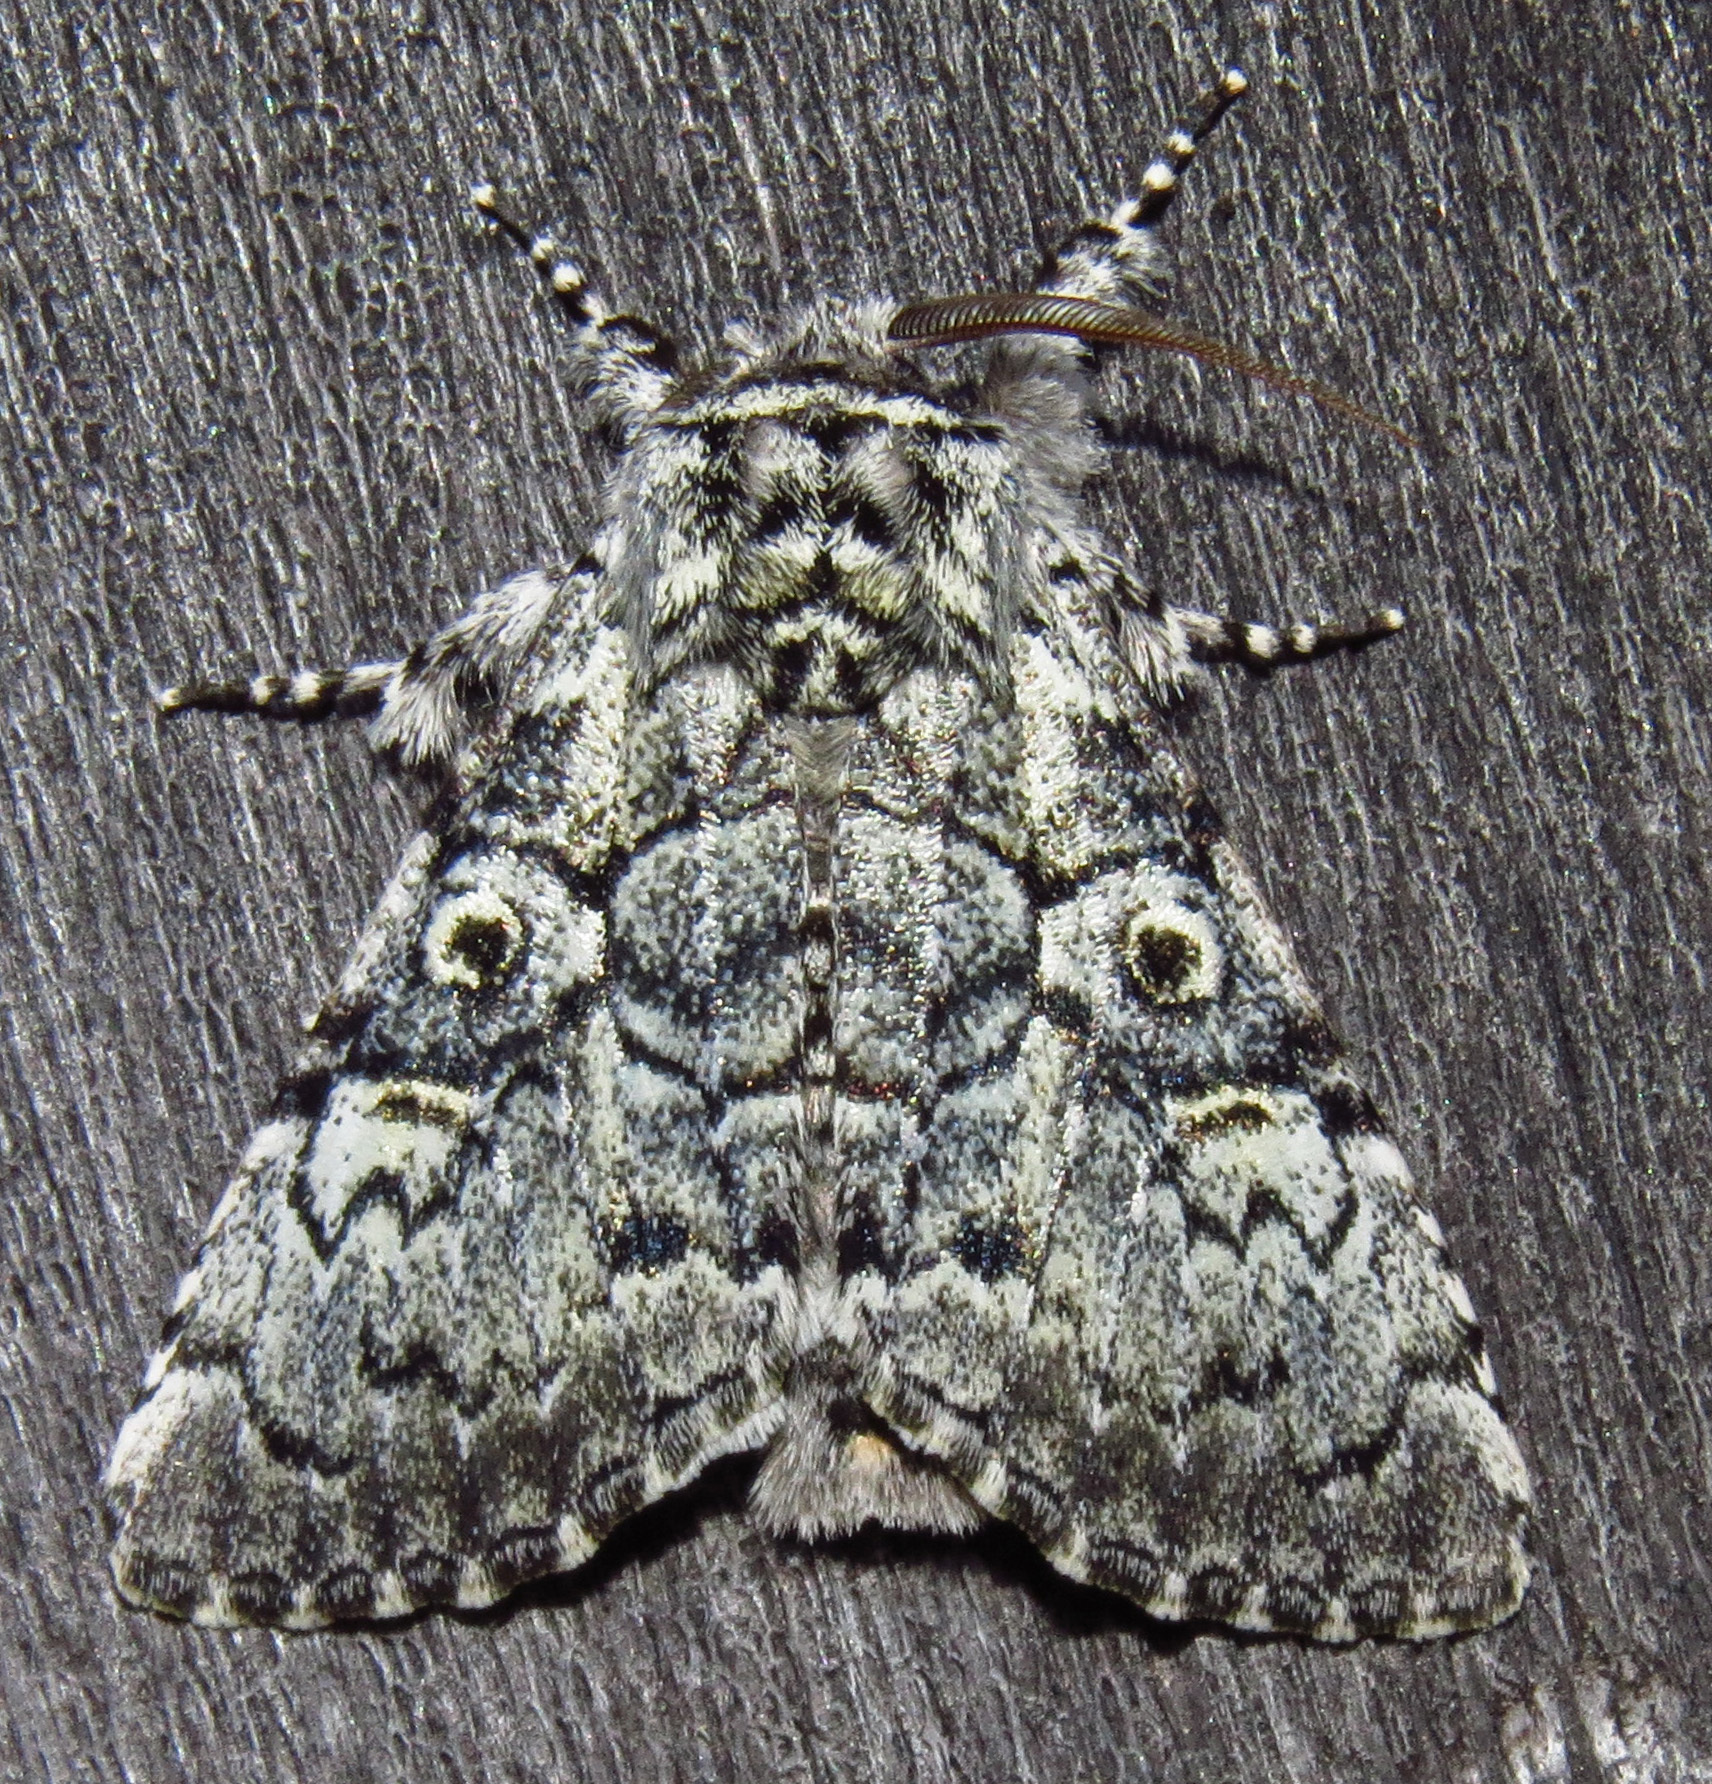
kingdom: Animalia
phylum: Arthropoda
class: Insecta
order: Lepidoptera
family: Noctuidae
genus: Charadra
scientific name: Charadra deridens
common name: Marbled tuffet
